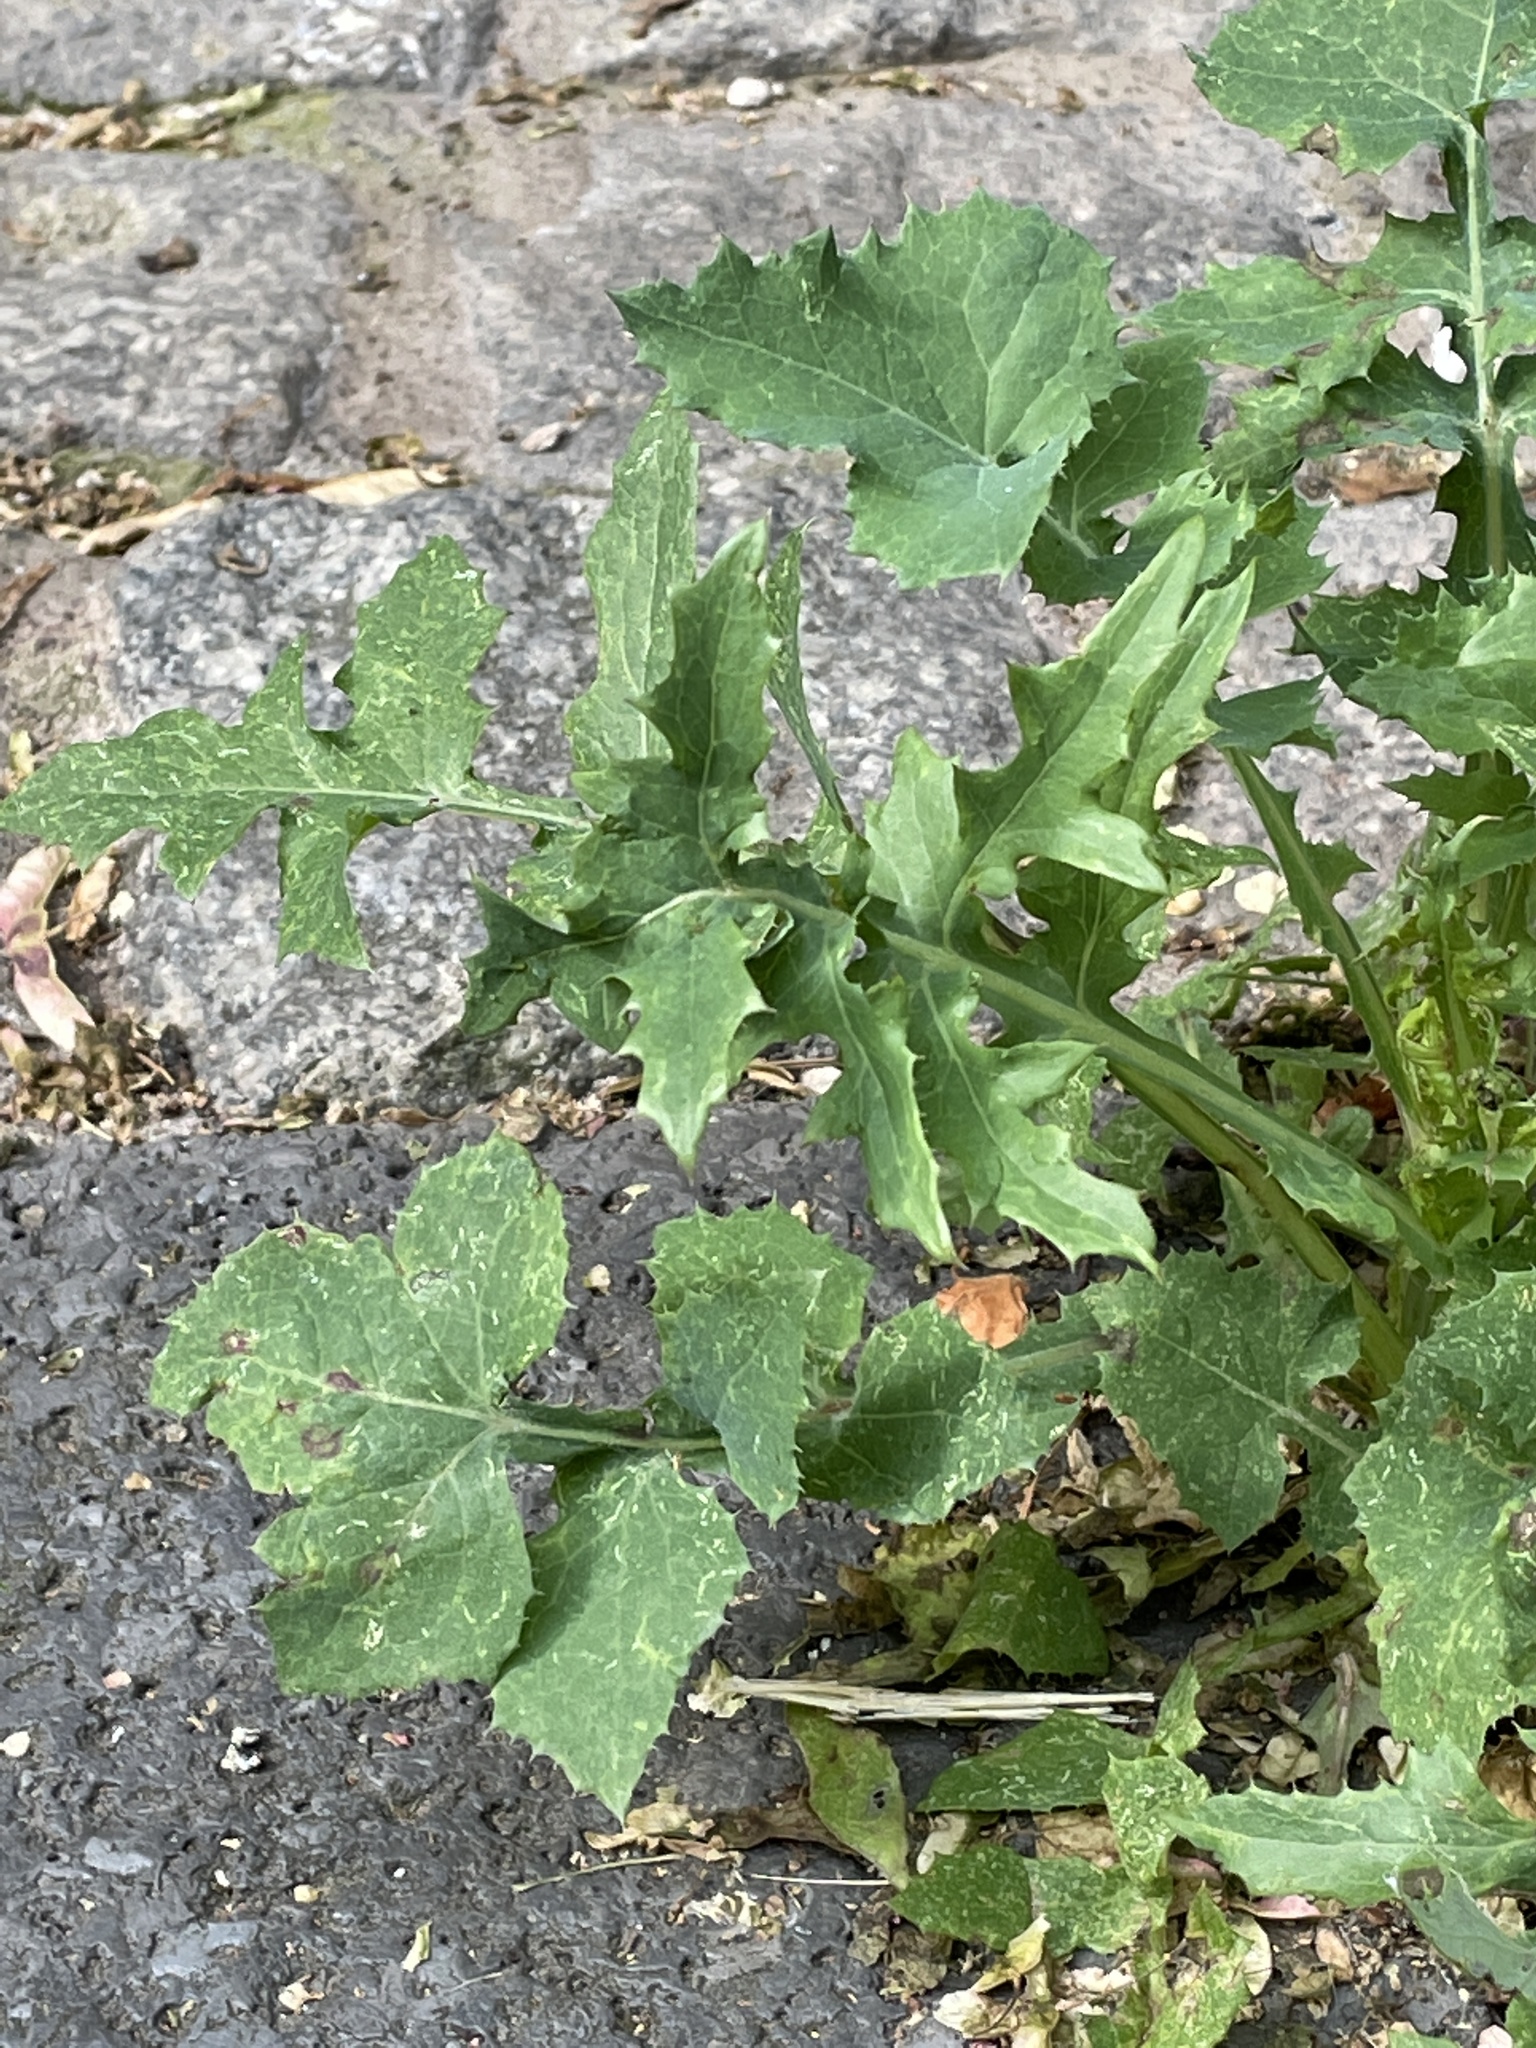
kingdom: Plantae
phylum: Tracheophyta
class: Magnoliopsida
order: Asterales
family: Asteraceae
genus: Sonchus
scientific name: Sonchus oleraceus
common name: Common sowthistle
